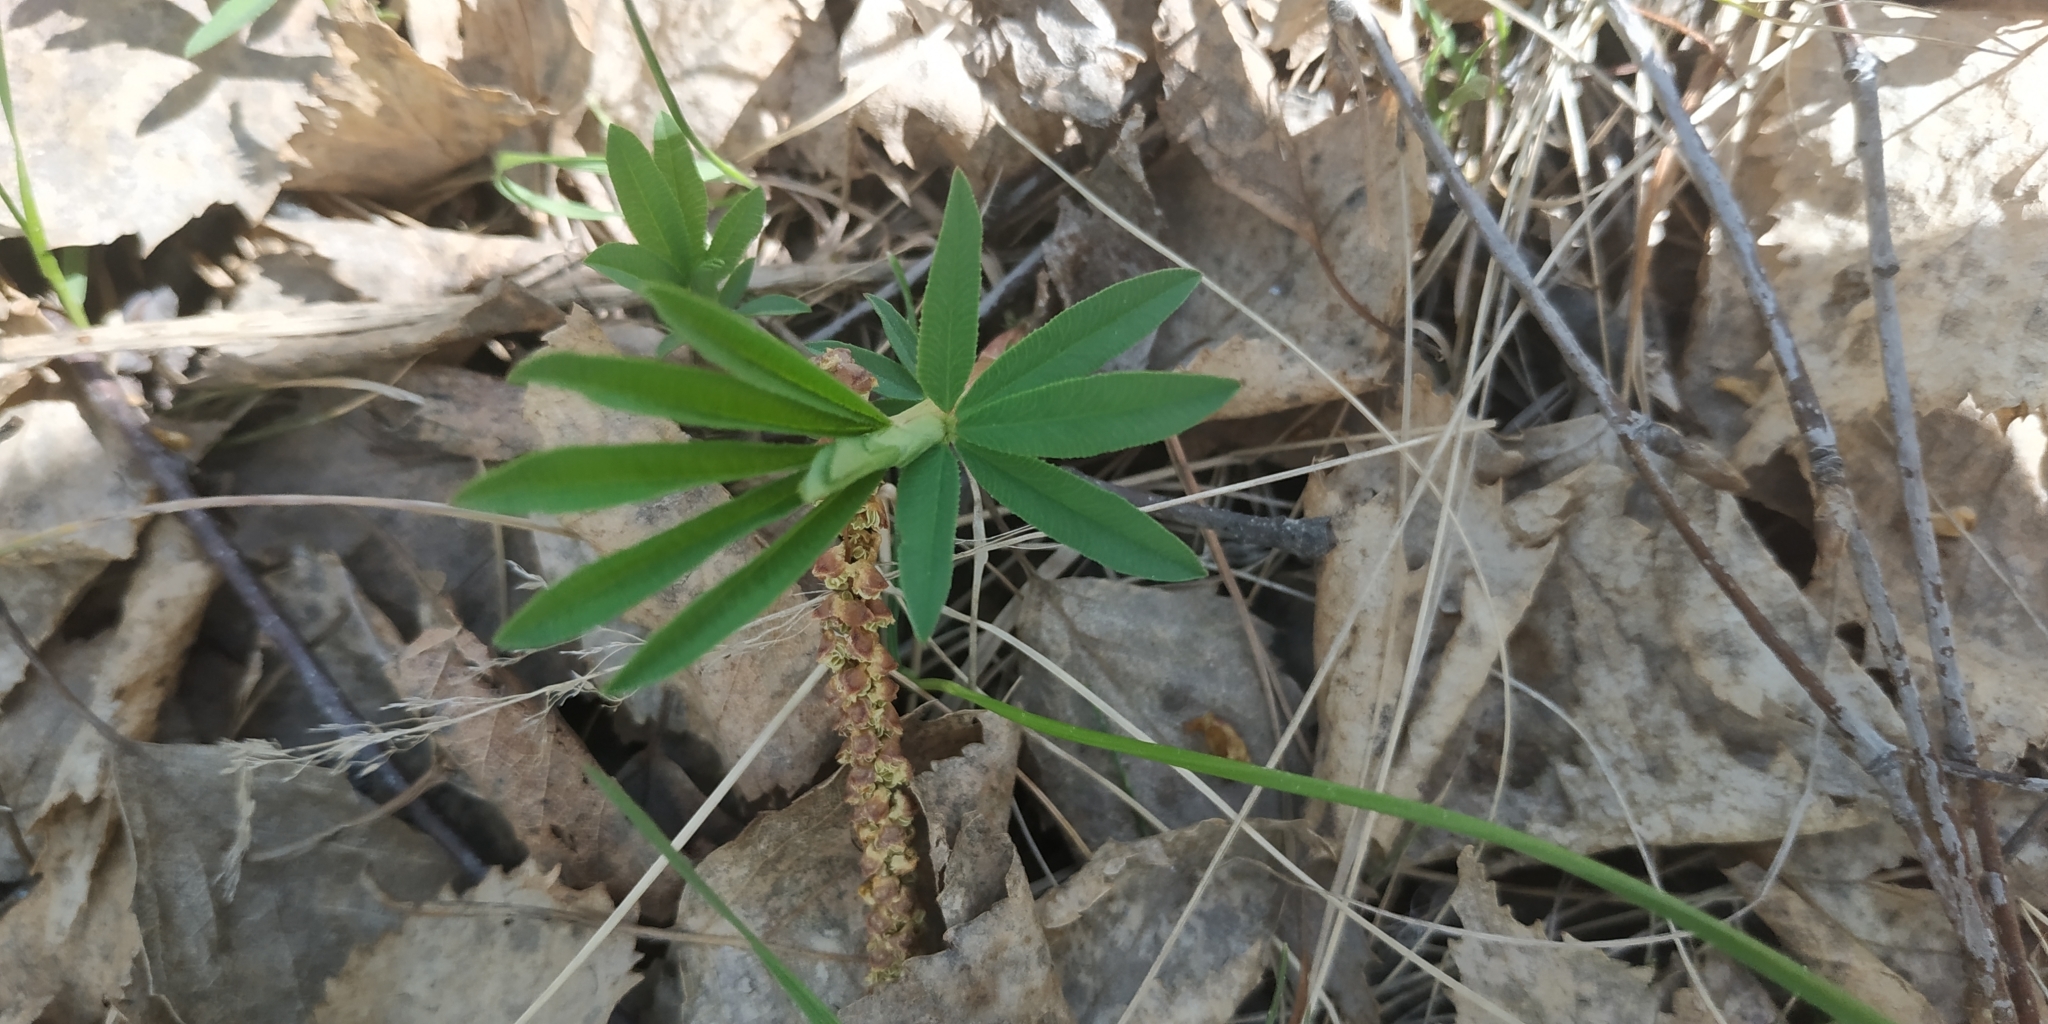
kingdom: Plantae
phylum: Tracheophyta
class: Magnoliopsida
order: Fabales
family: Fabaceae
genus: Trifolium
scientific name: Trifolium lupinaster
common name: Lupine clover
